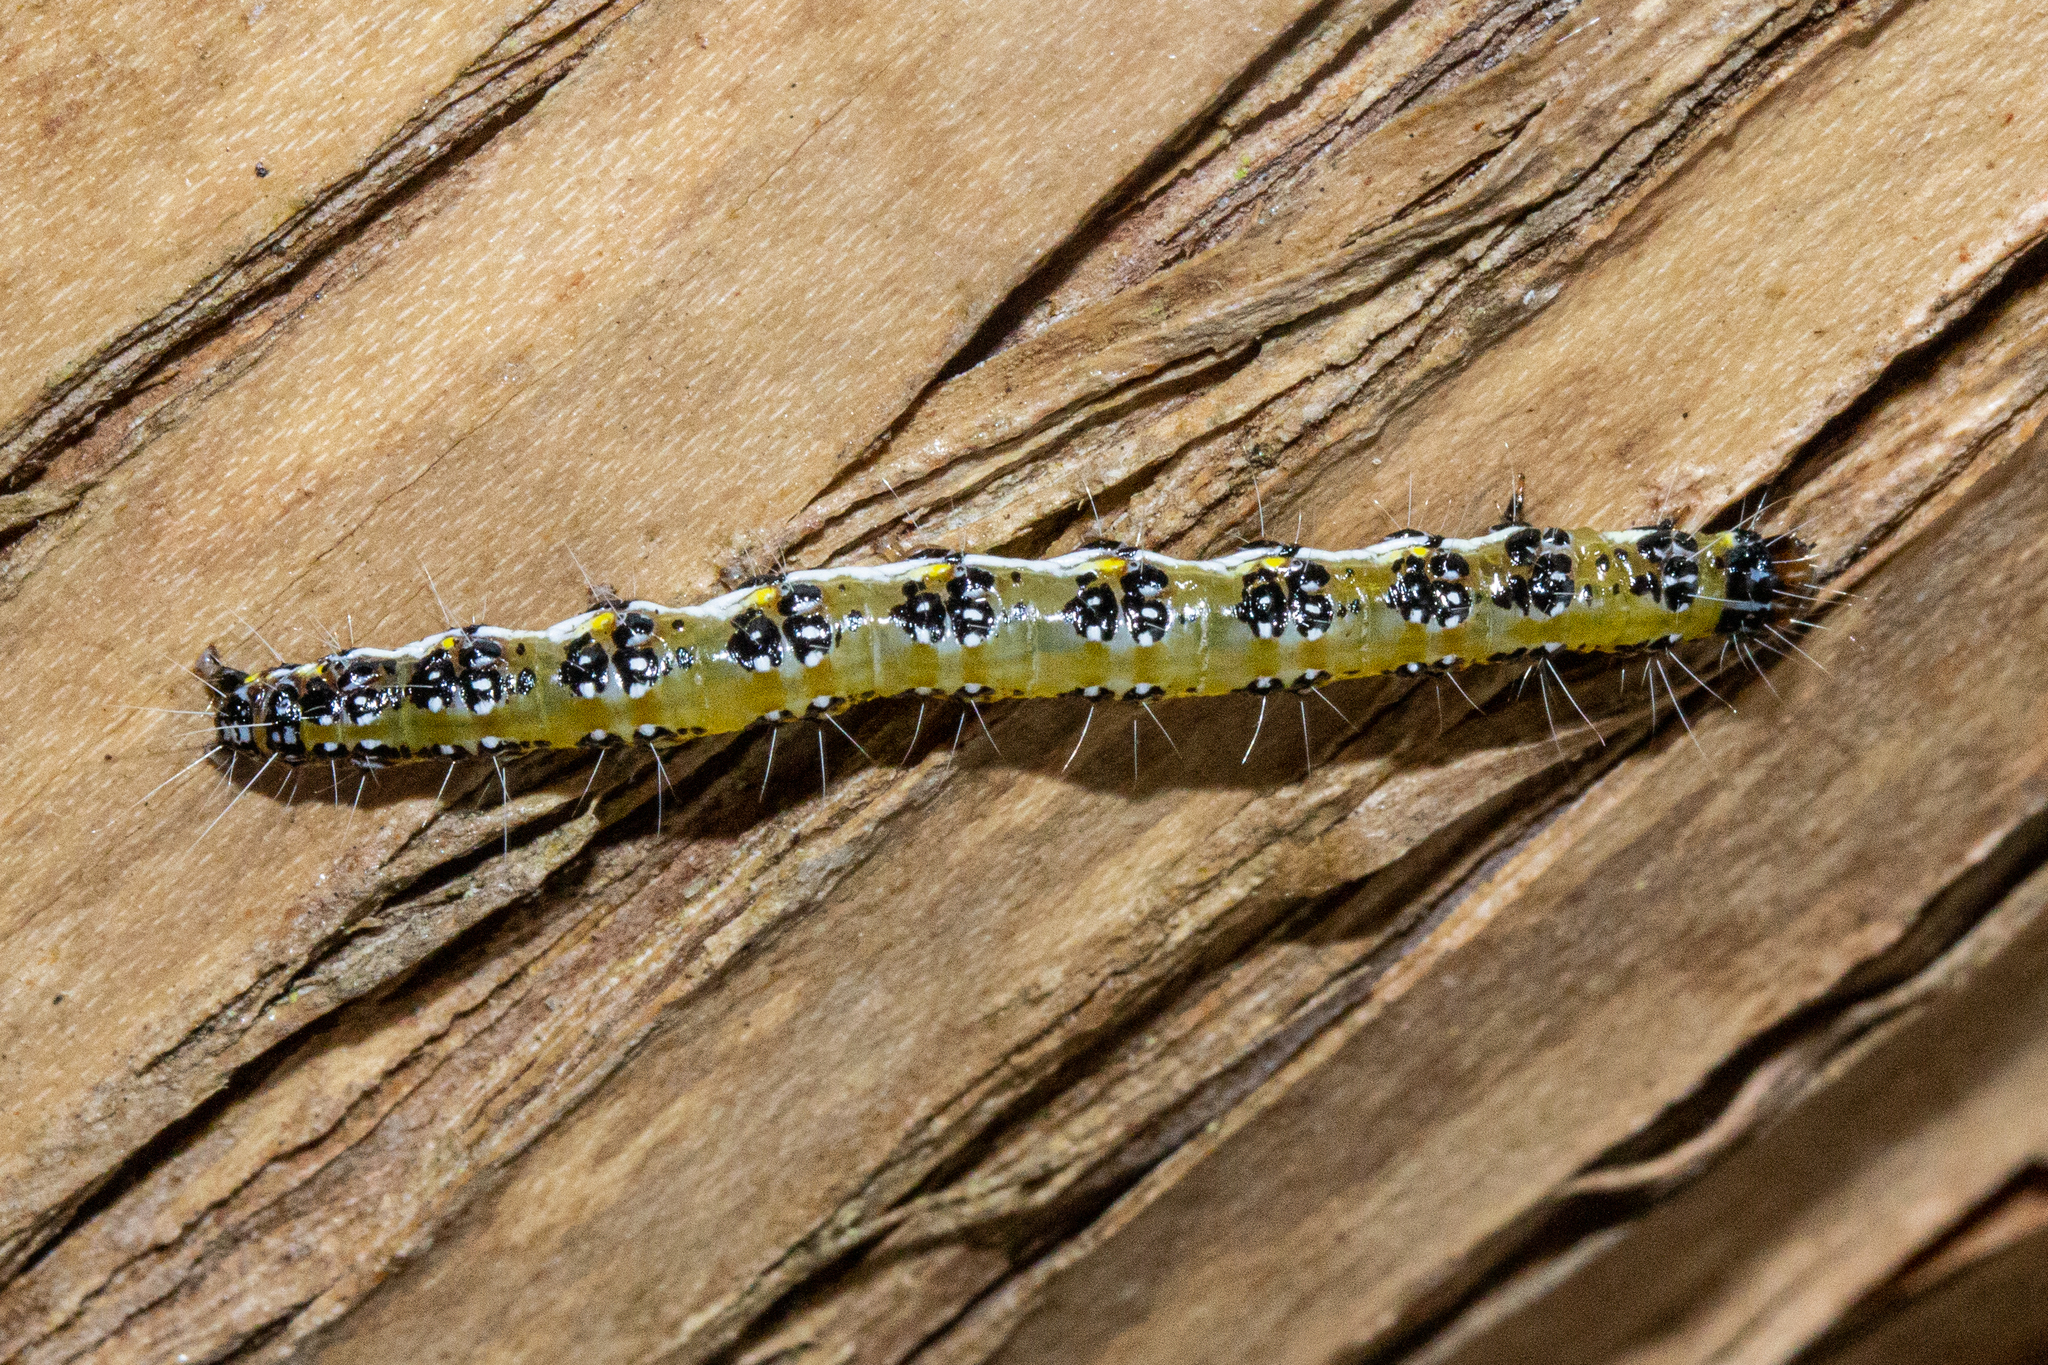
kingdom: Animalia
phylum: Arthropoda
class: Insecta
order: Lepidoptera
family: Crambidae
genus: Uresiphita
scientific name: Uresiphita
